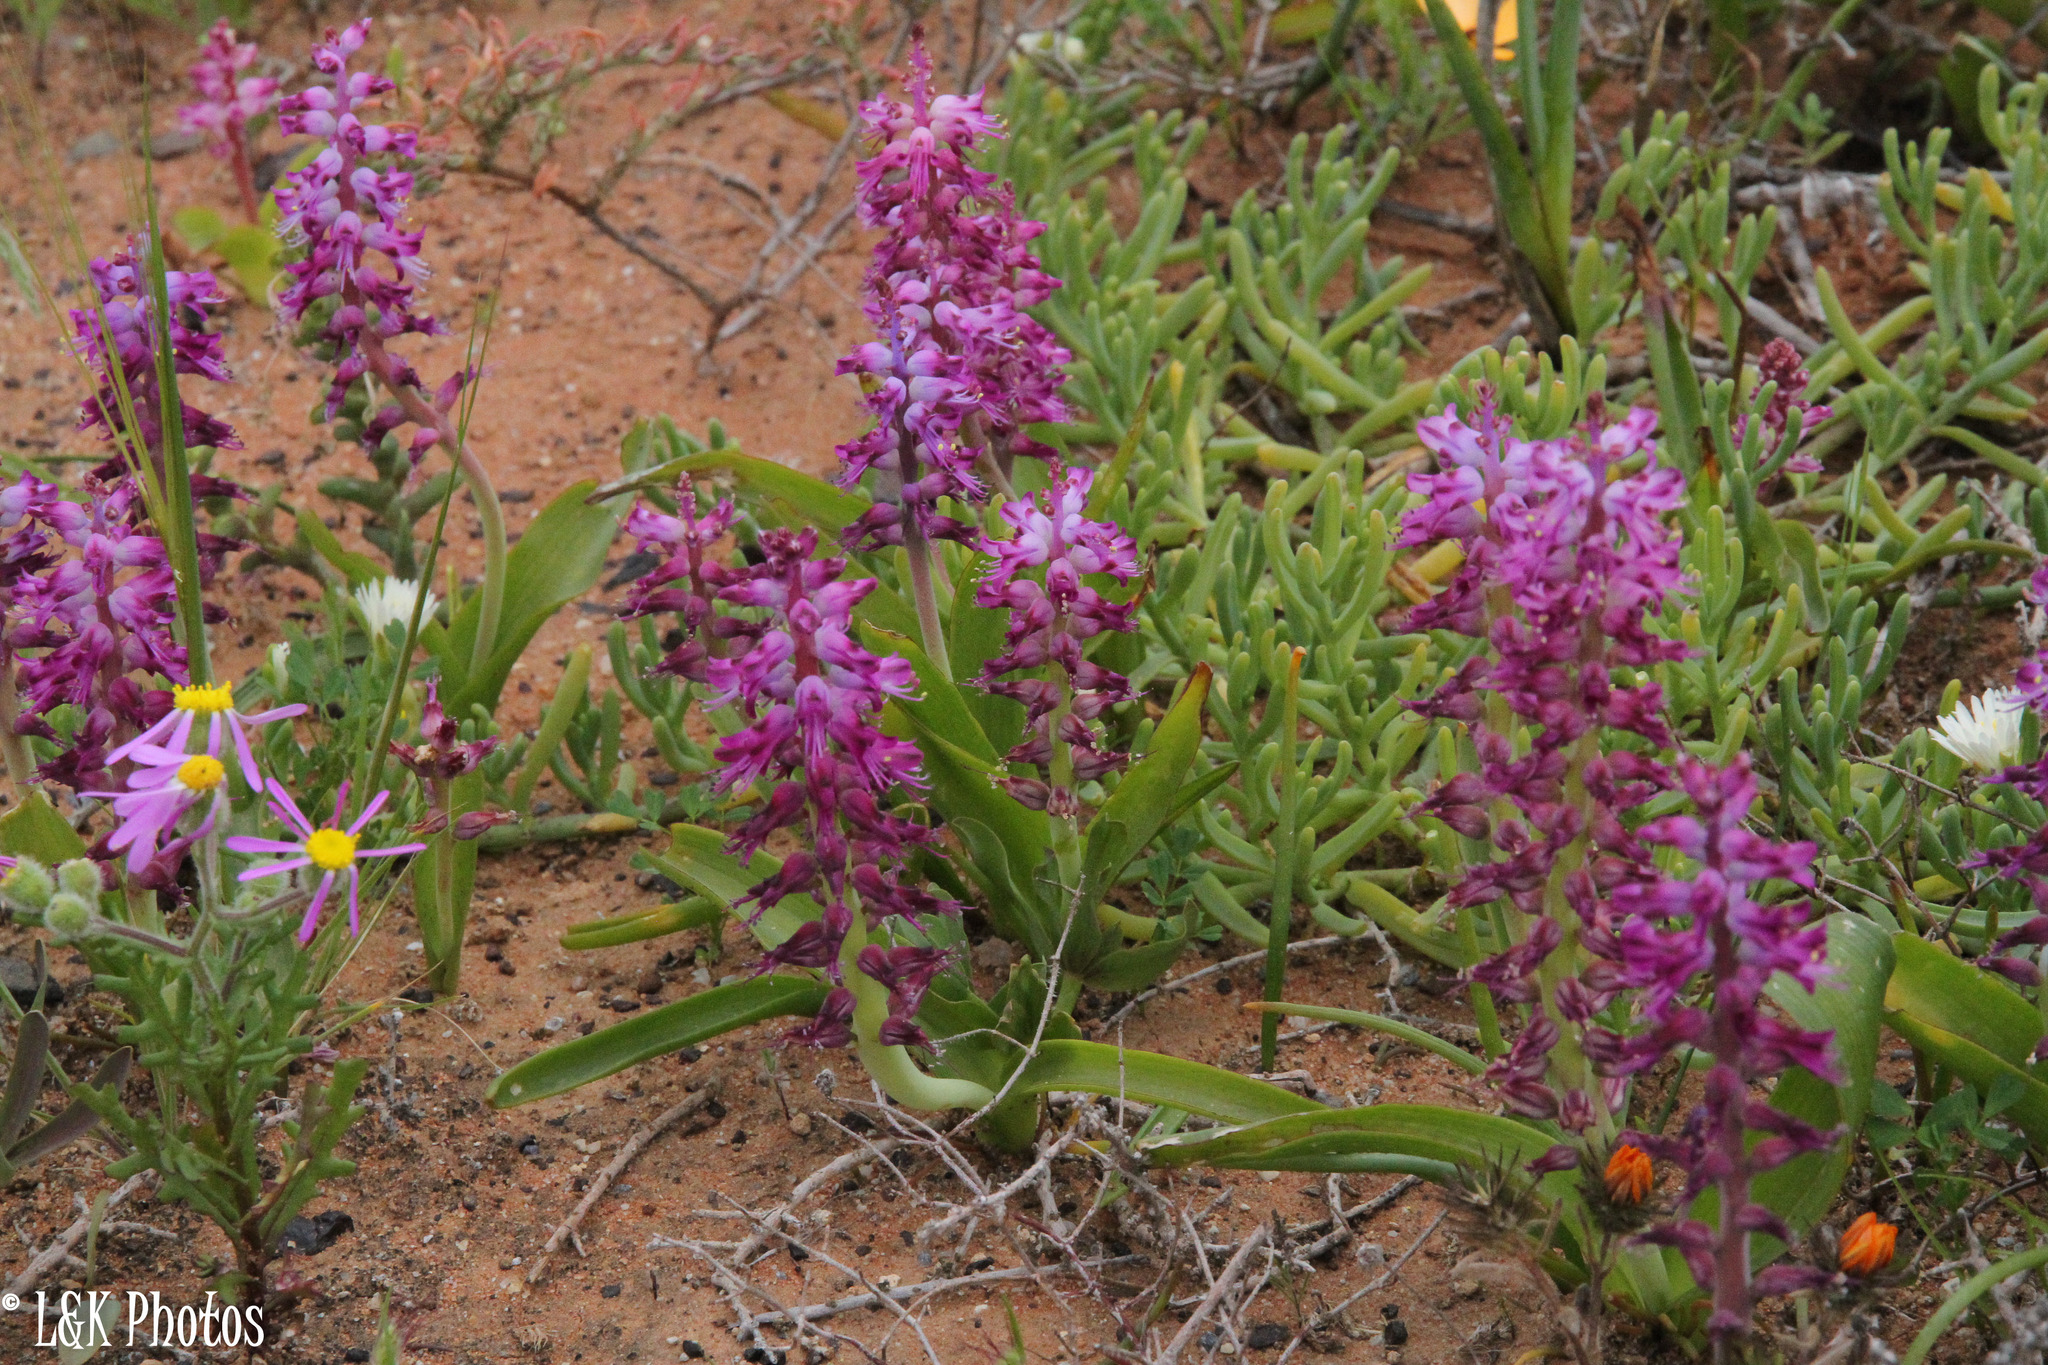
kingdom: Plantae
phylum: Tracheophyta
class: Liliopsida
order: Asparagales
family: Asparagaceae
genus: Lachenalia
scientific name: Lachenalia splendida
